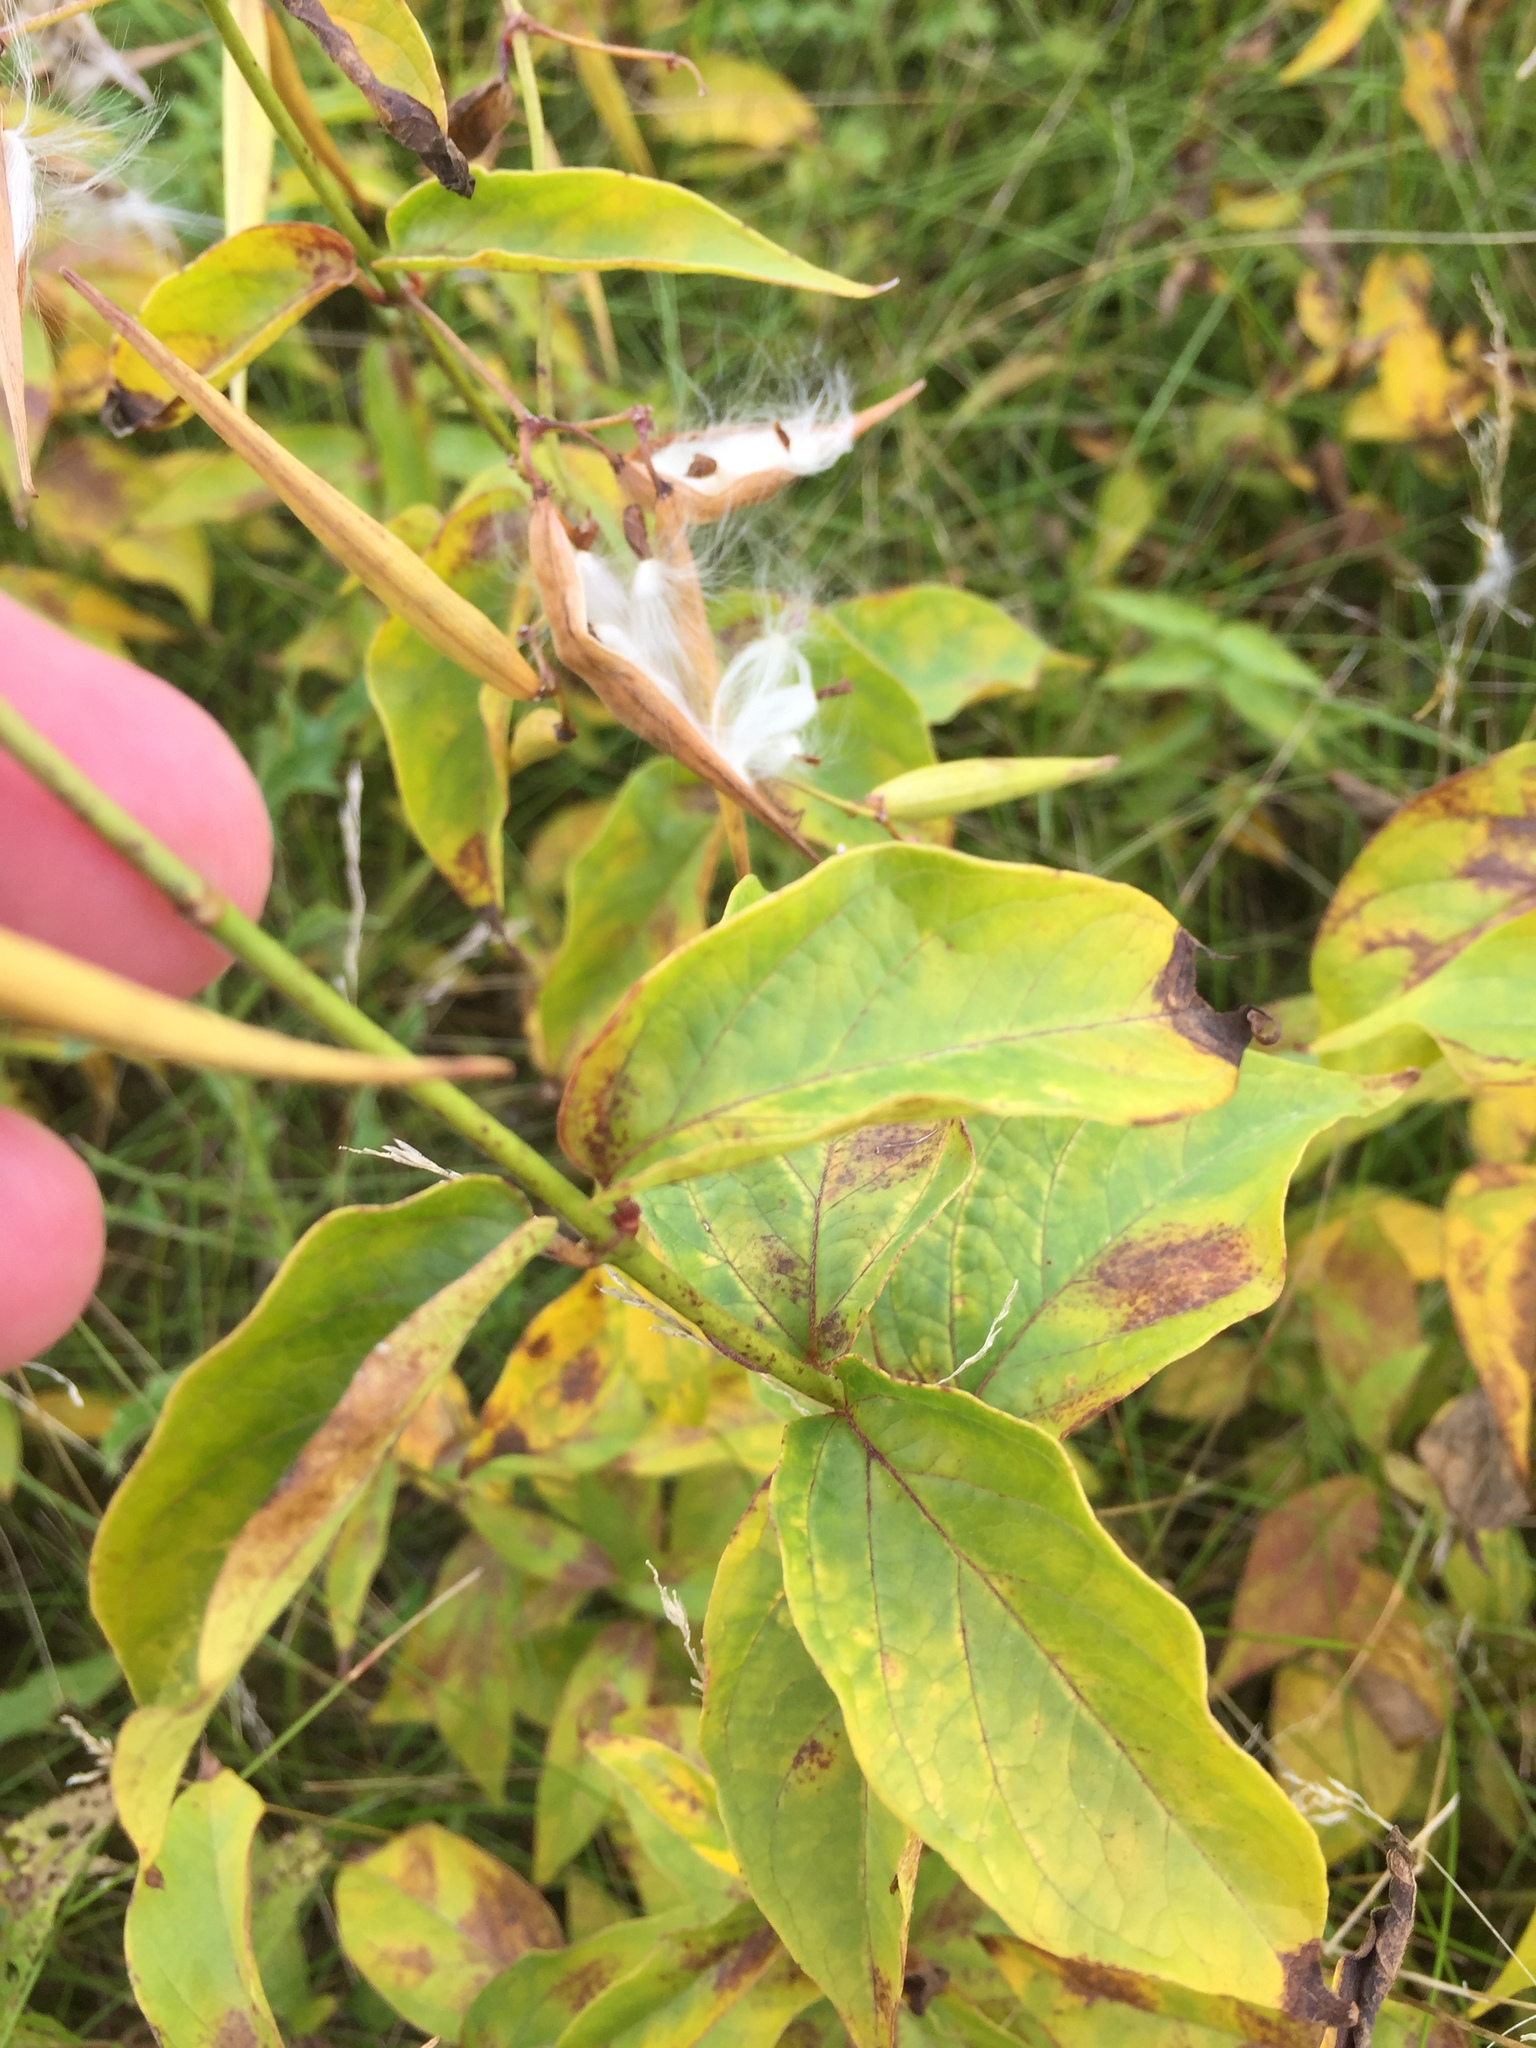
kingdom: Plantae
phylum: Tracheophyta
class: Magnoliopsida
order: Gentianales
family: Apocynaceae
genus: Vincetoxicum
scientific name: Vincetoxicum nigrum
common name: Black swallow-wort
